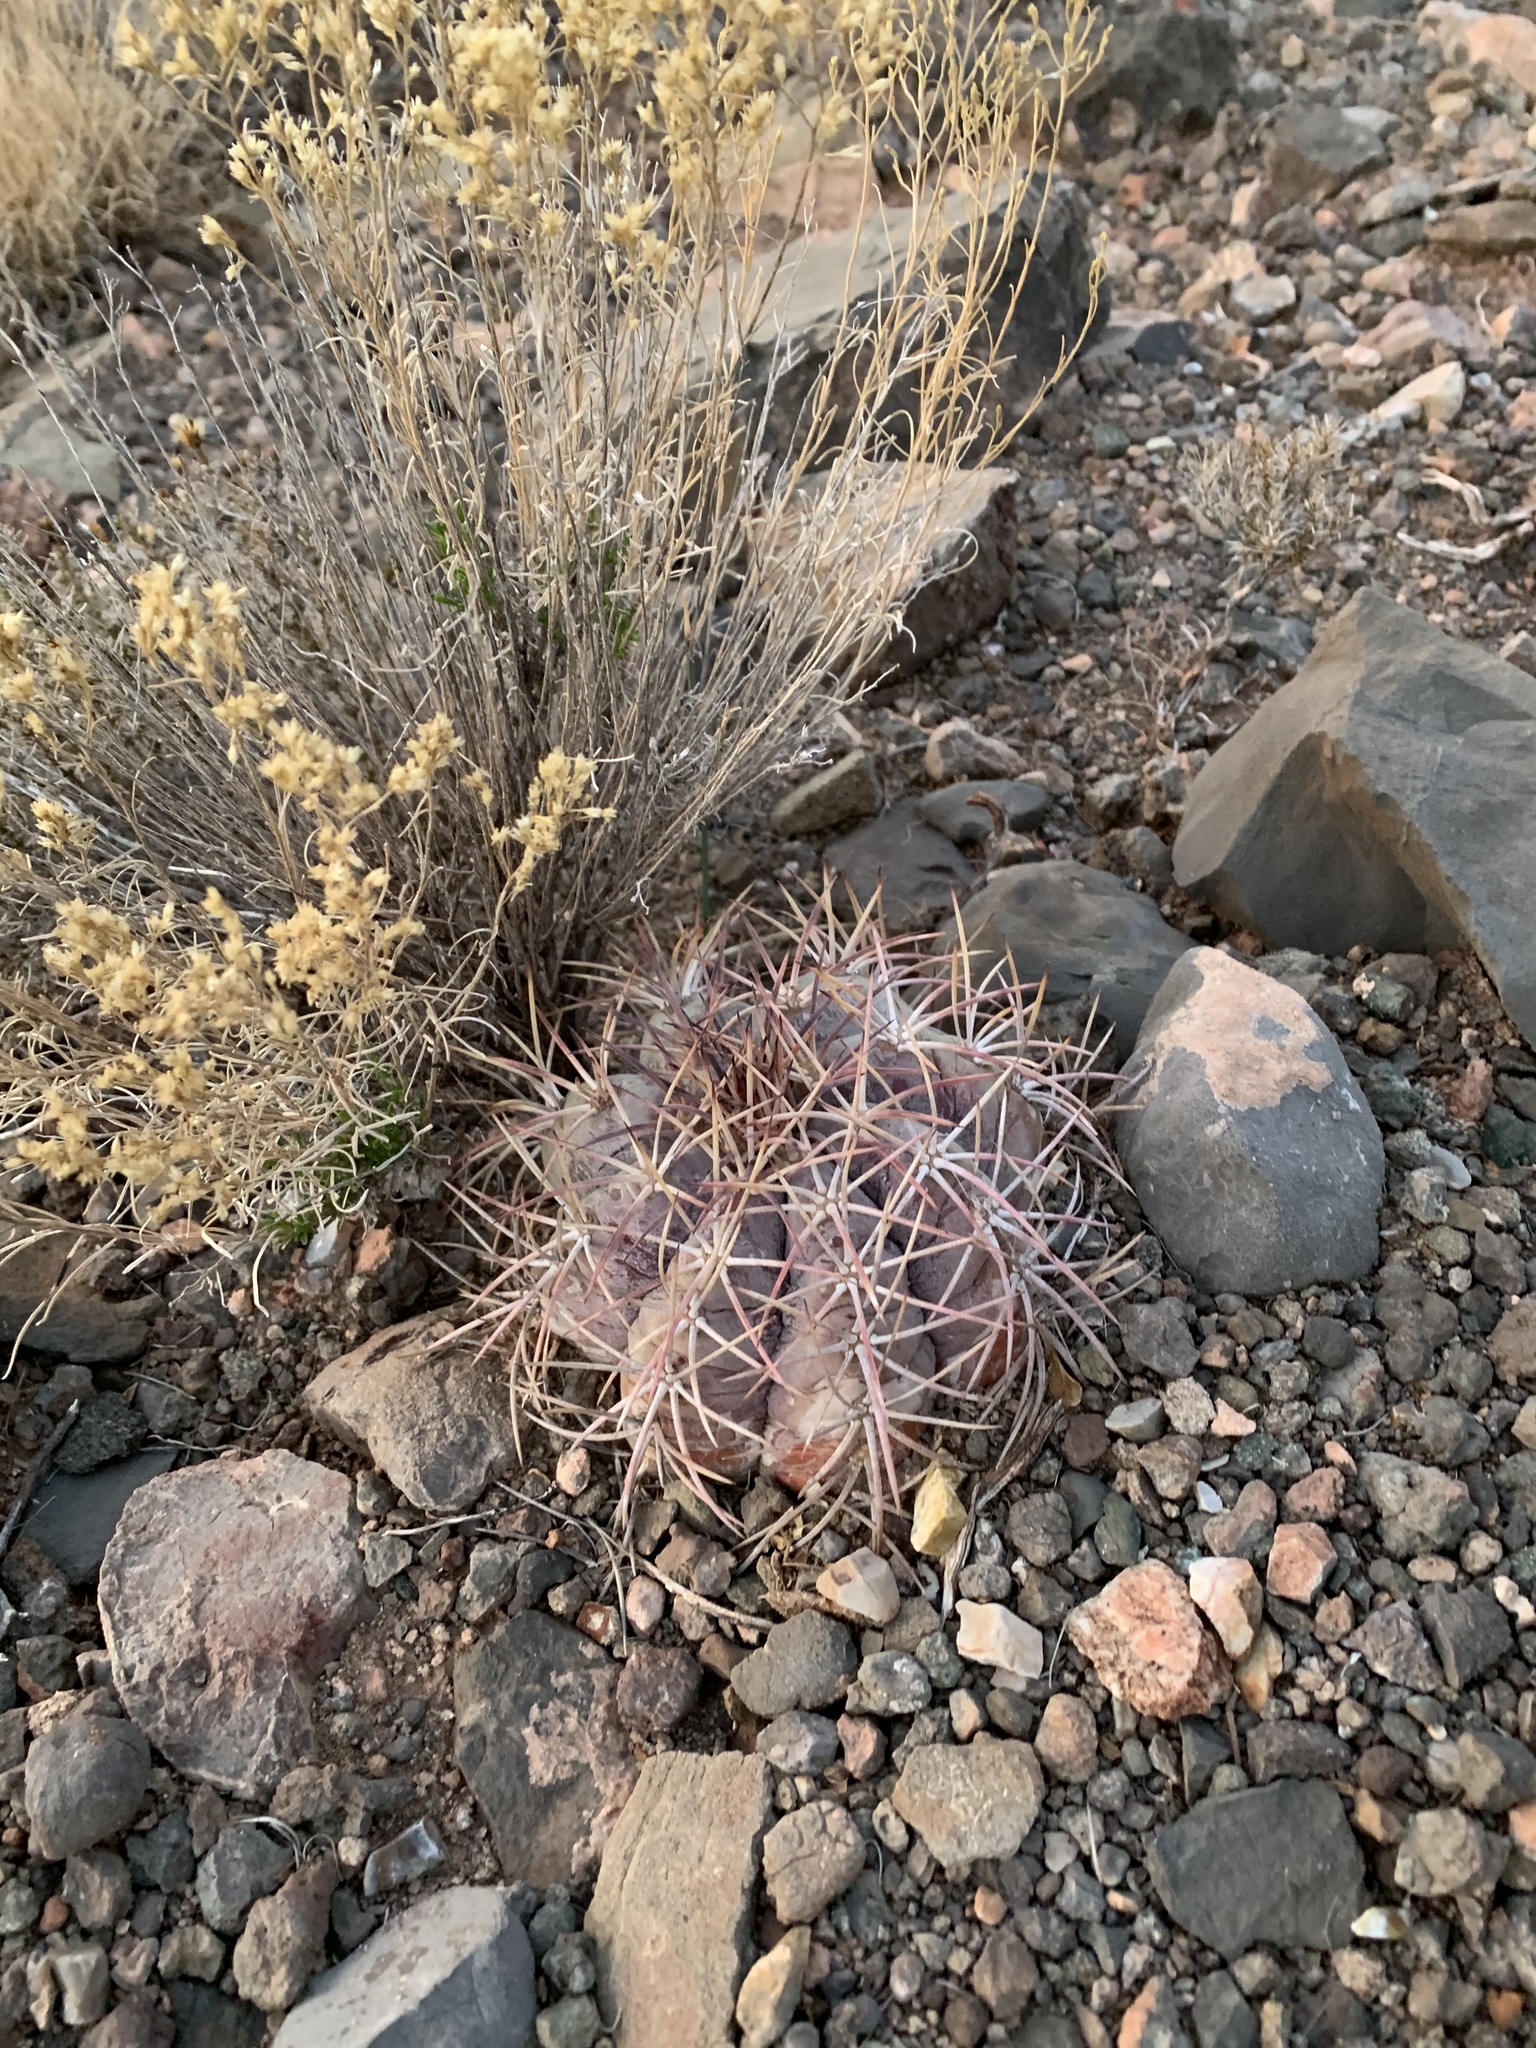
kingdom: Plantae
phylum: Tracheophyta
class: Magnoliopsida
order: Caryophyllales
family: Cactaceae
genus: Echinocactus
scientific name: Echinocactus horizonthalonius
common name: Devilshead
